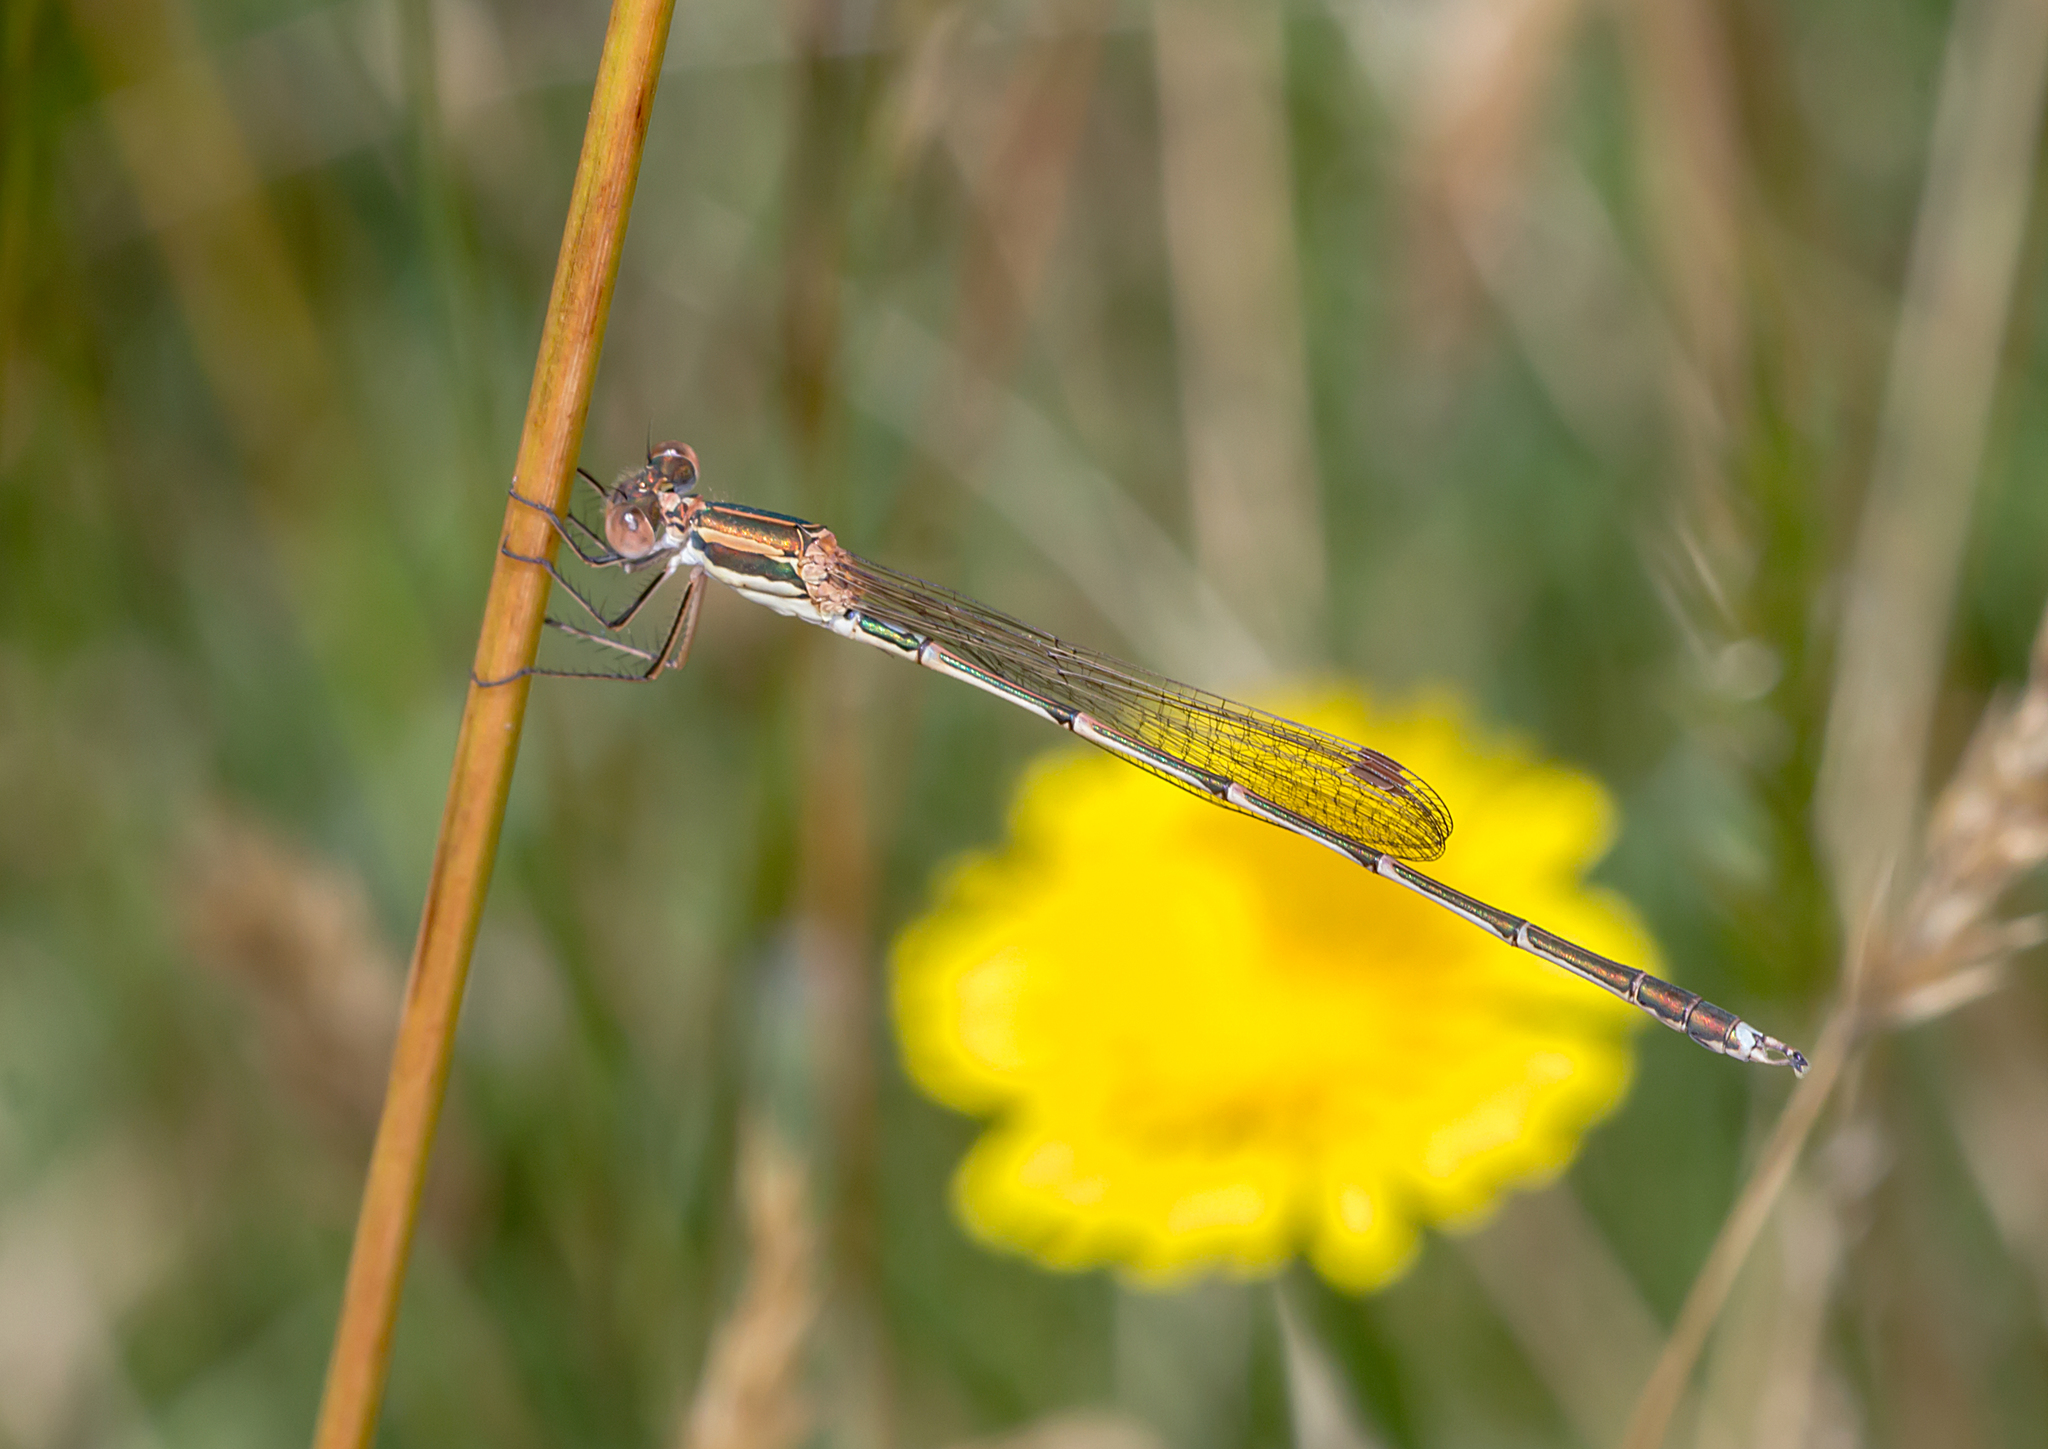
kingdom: Animalia
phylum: Arthropoda
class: Insecta
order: Odonata
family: Lestidae
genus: Austrolestes
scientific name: Austrolestes analis
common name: Slender ringtail
